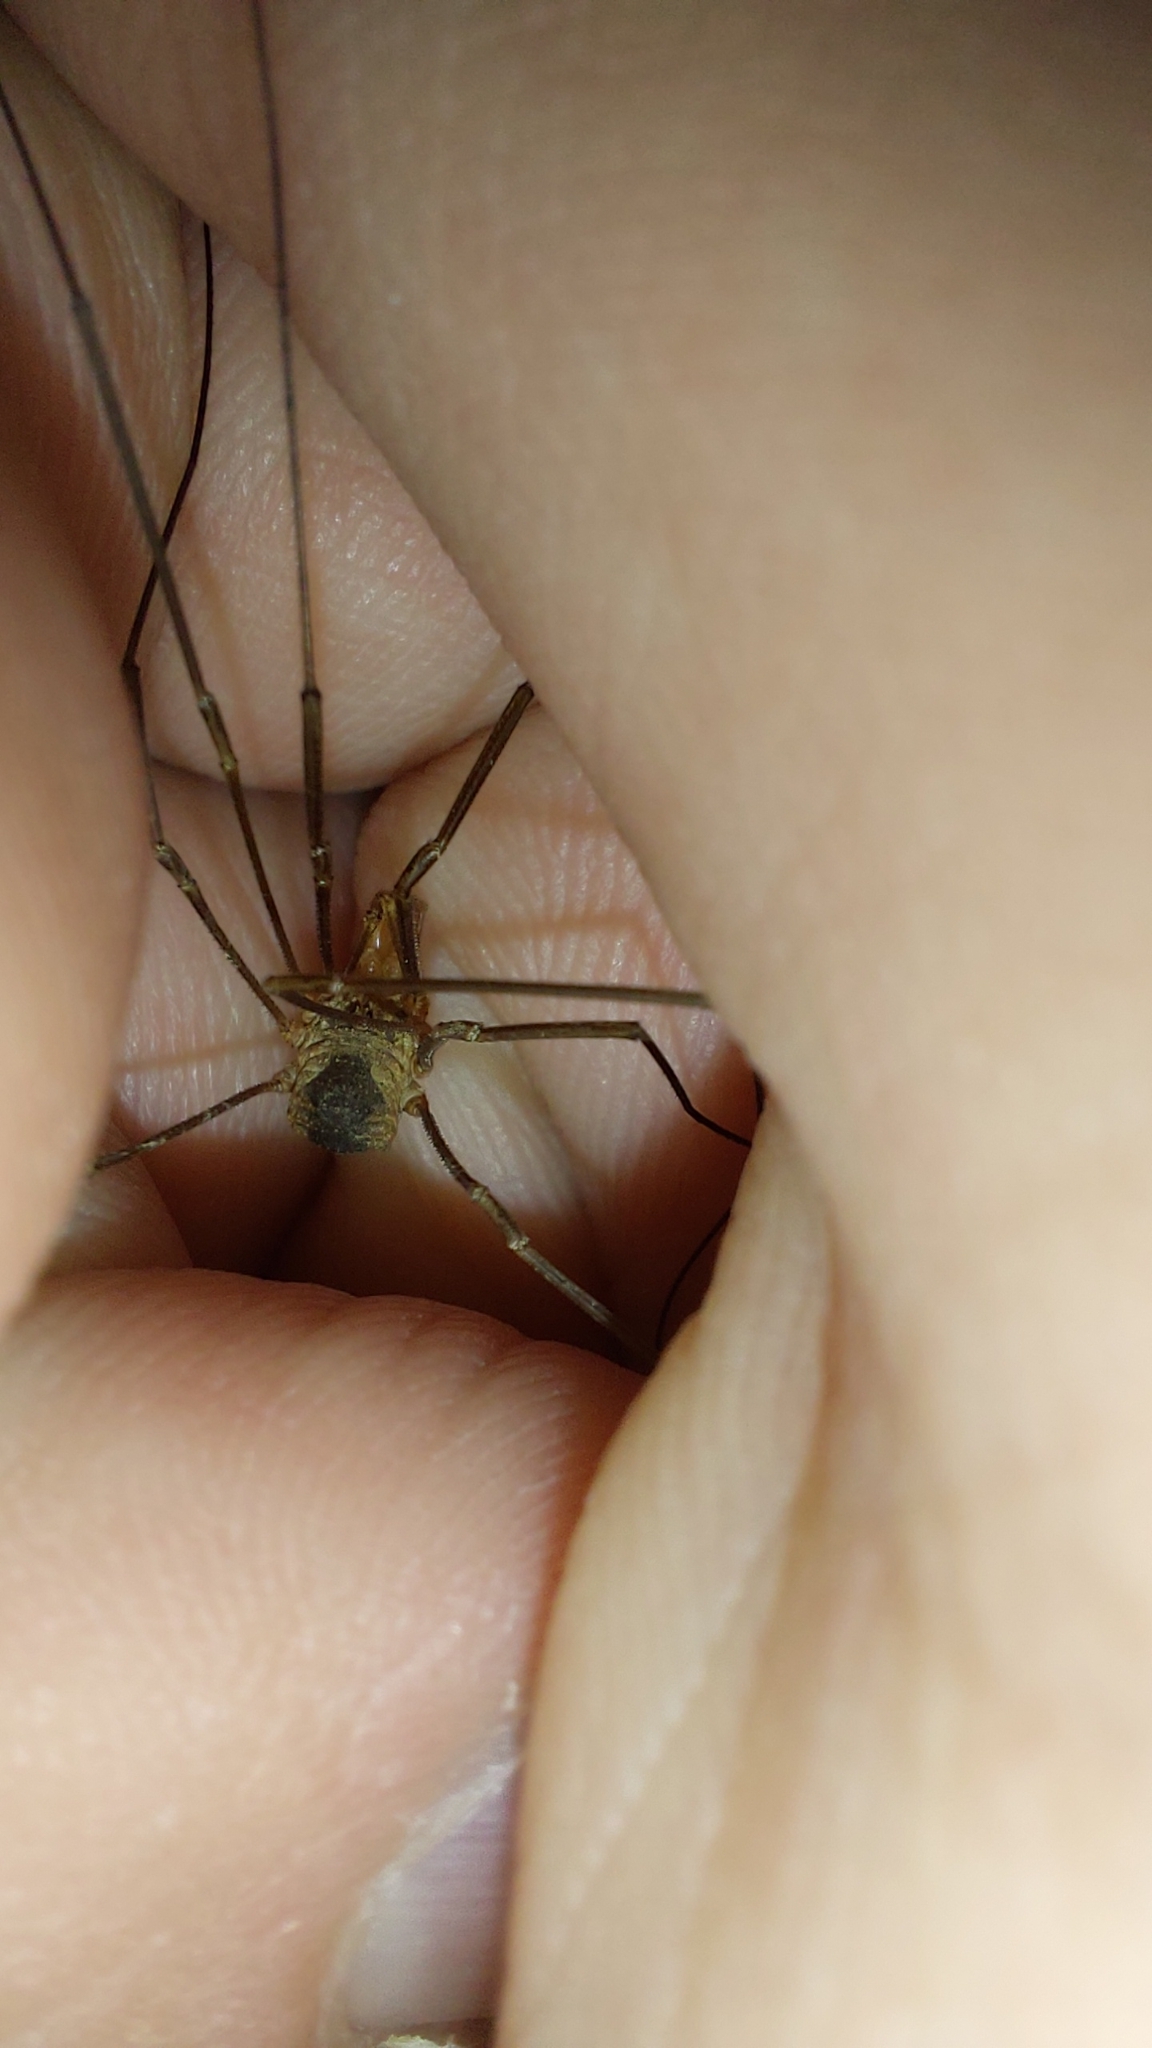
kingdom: Animalia
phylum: Arthropoda
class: Arachnida
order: Opiliones
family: Phalangiidae
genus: Phalangium
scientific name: Phalangium opilio
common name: Daddy longleg
